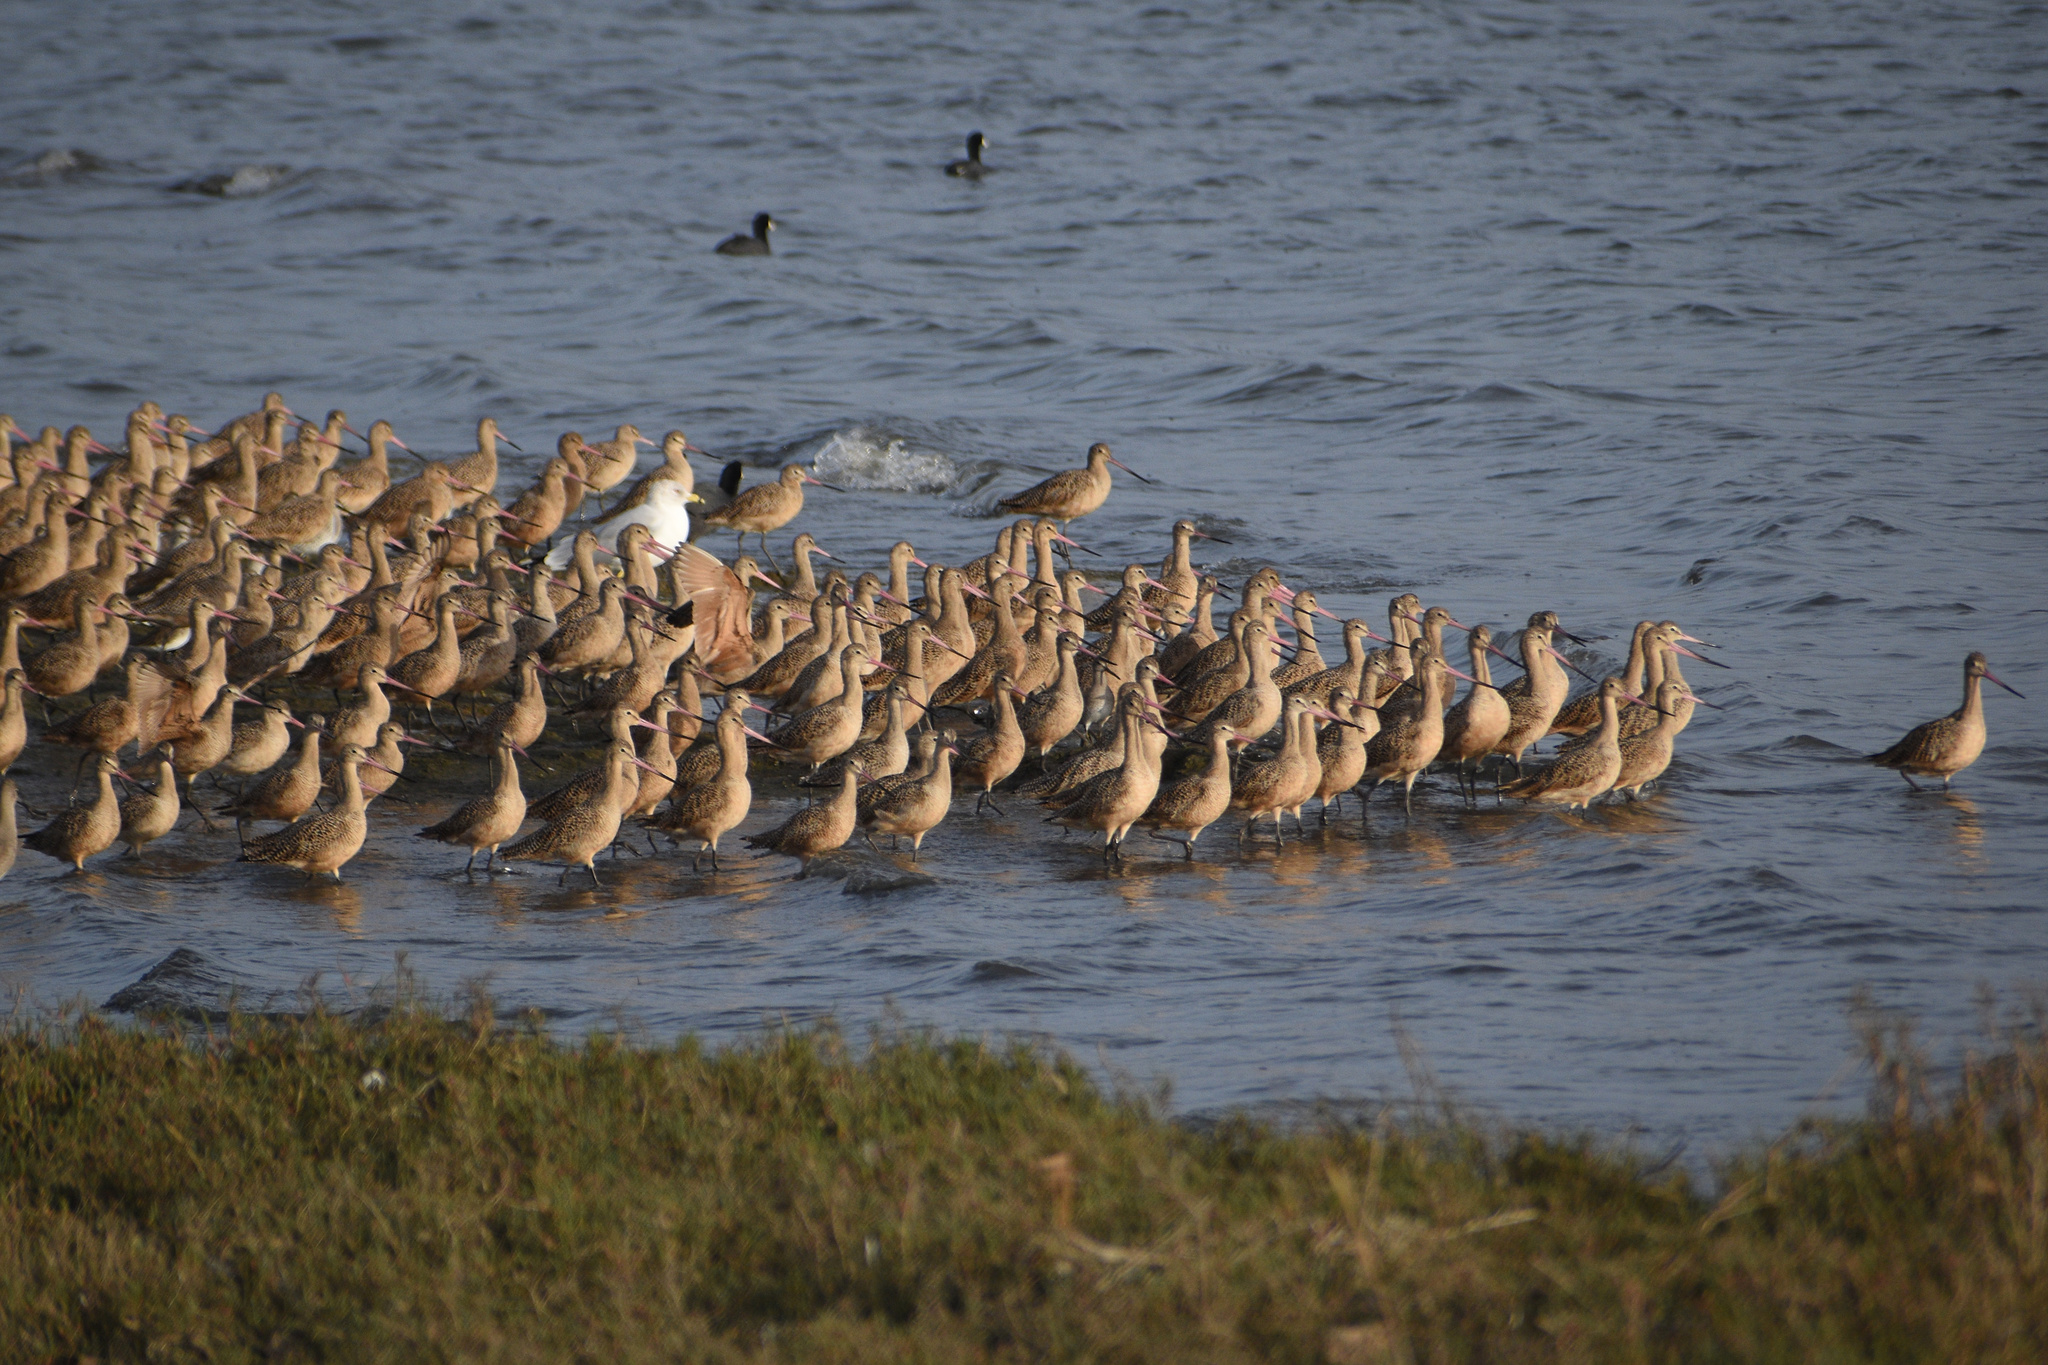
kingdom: Animalia
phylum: Chordata
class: Aves
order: Charadriiformes
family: Scolopacidae
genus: Limosa
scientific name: Limosa fedoa
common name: Marbled godwit
